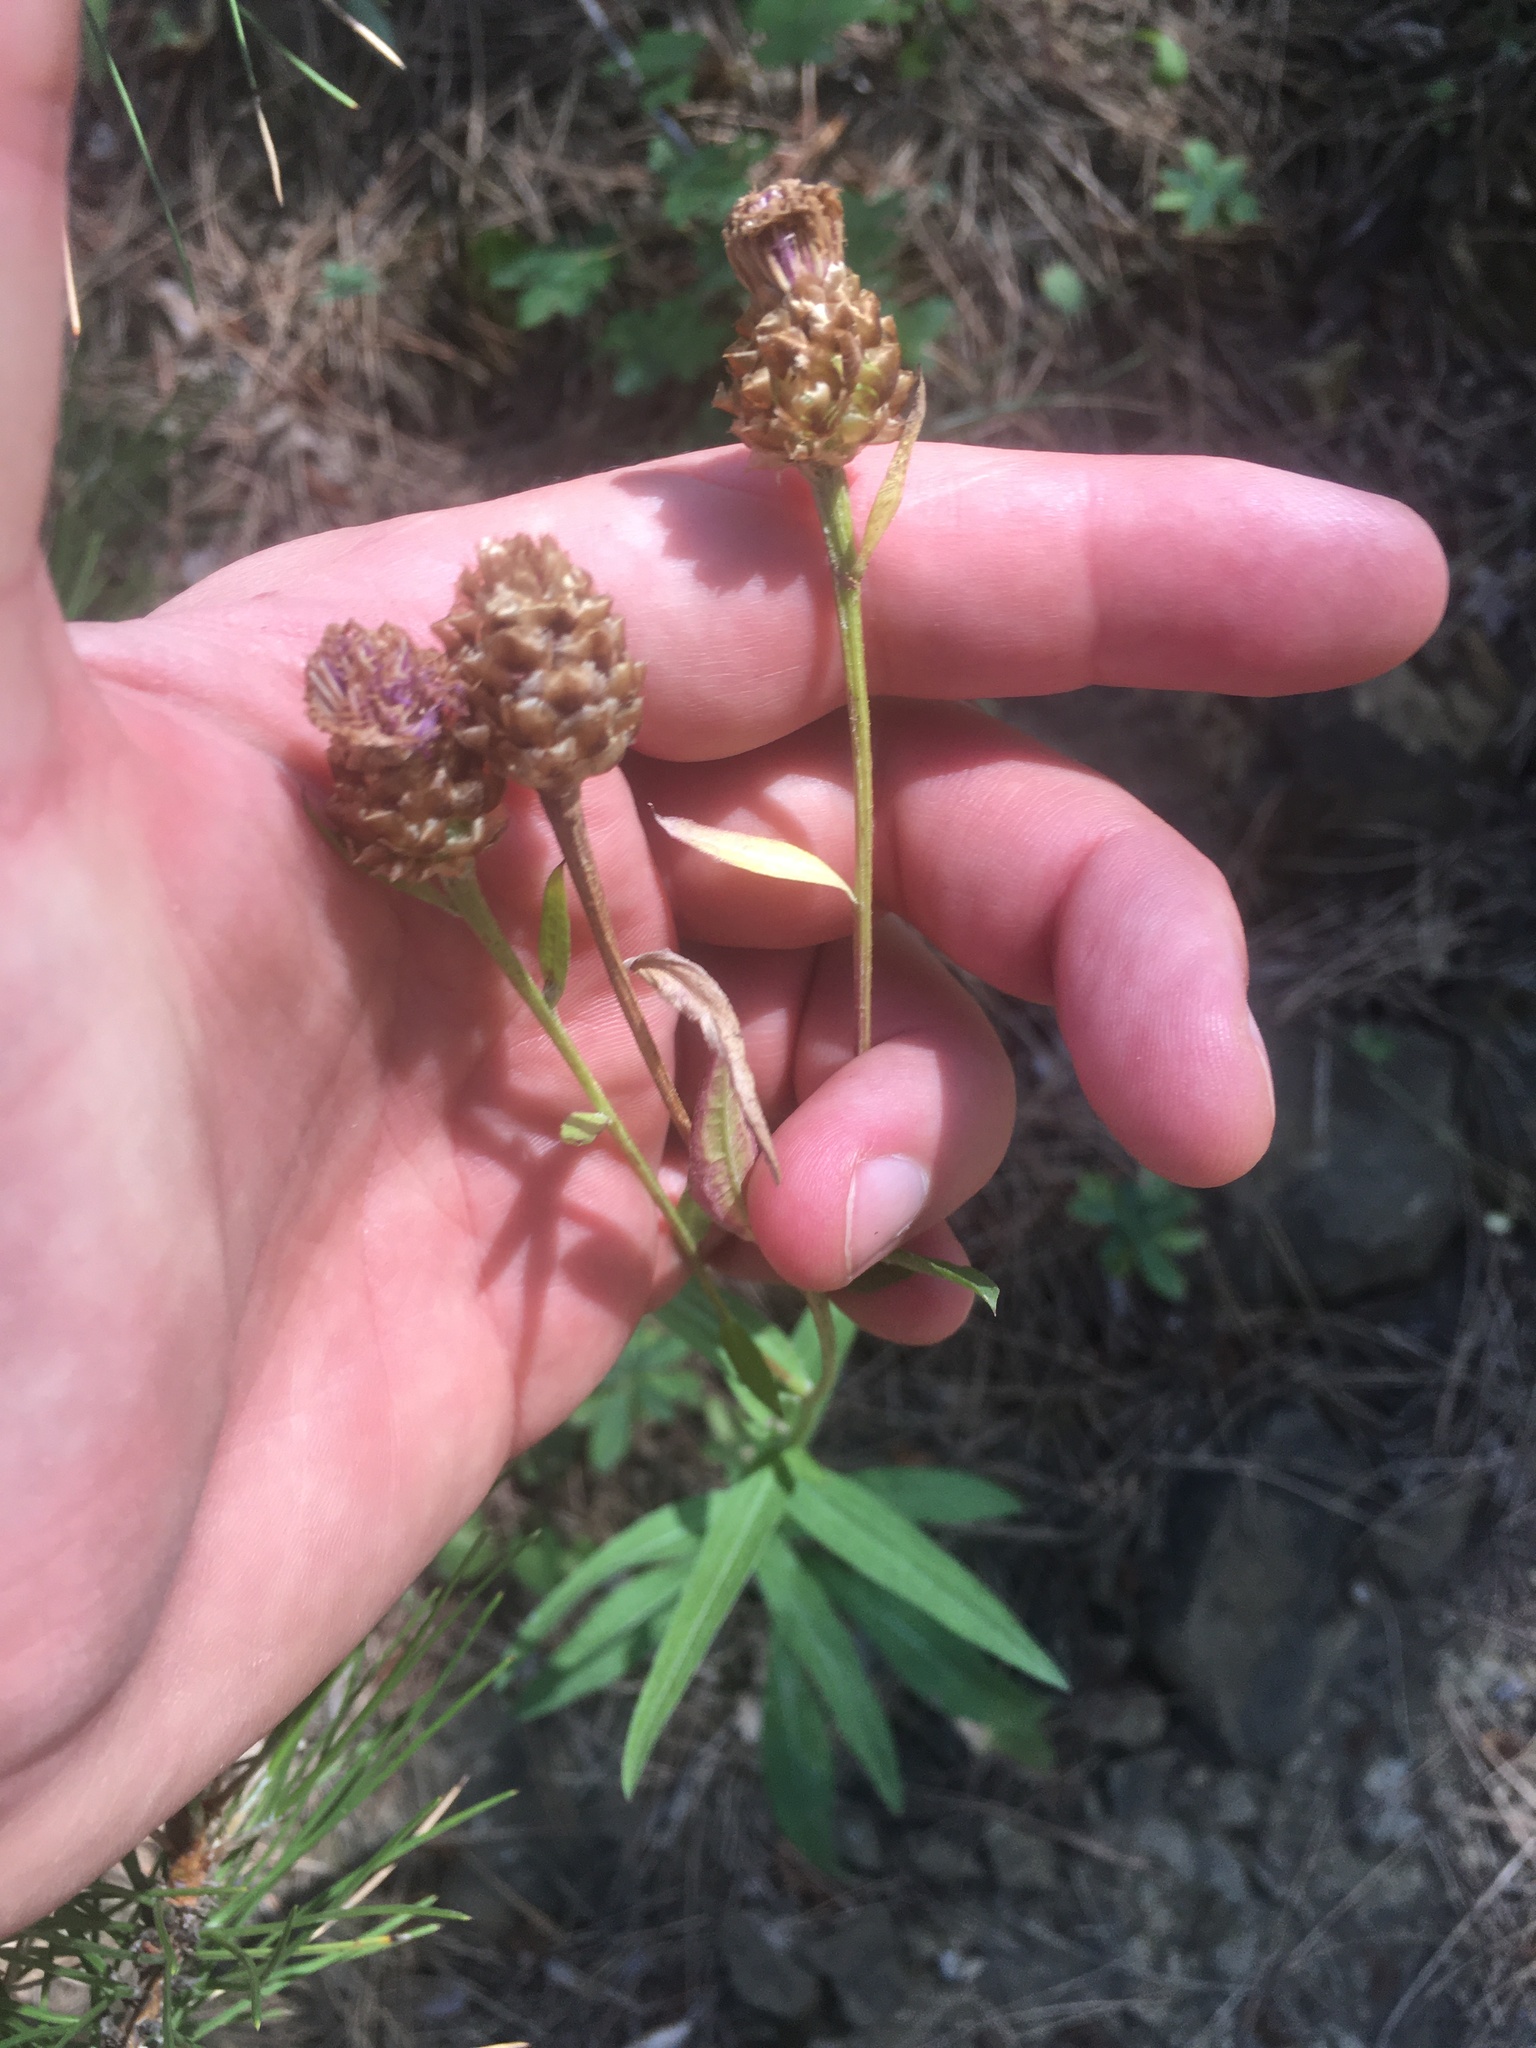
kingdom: Plantae
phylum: Tracheophyta
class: Magnoliopsida
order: Asterales
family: Asteraceae
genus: Centaurea
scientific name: Centaurea jacea
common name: Brown knapweed
